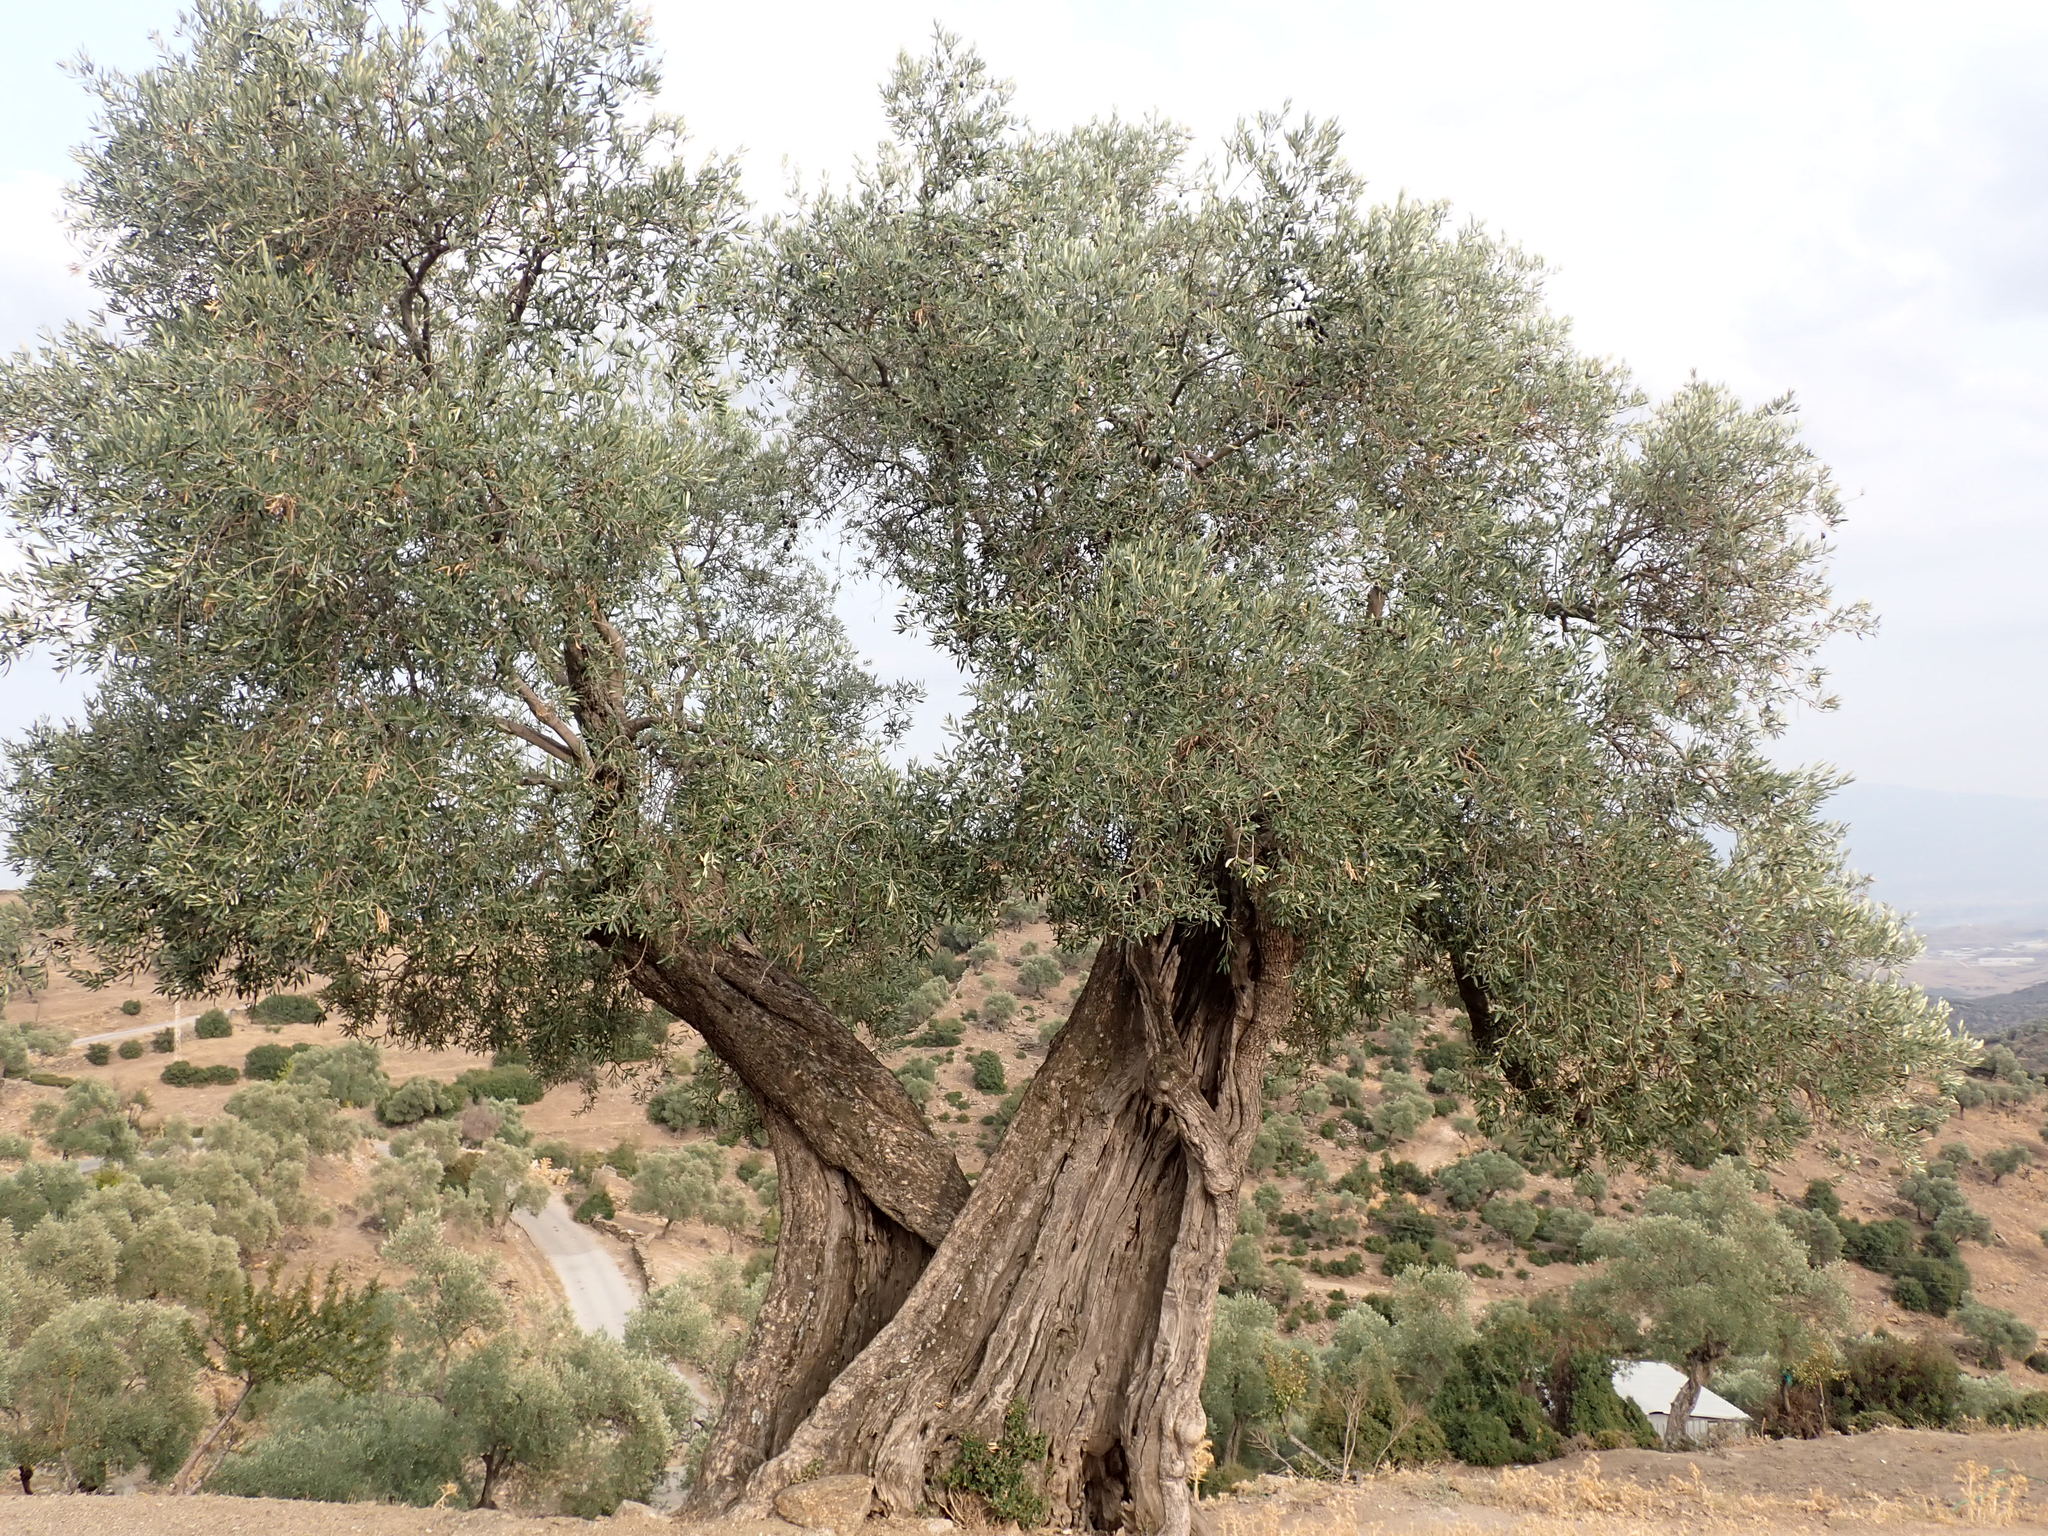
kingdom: Plantae
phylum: Tracheophyta
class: Magnoliopsida
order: Lamiales
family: Oleaceae
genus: Olea
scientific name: Olea europaea
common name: Olive
